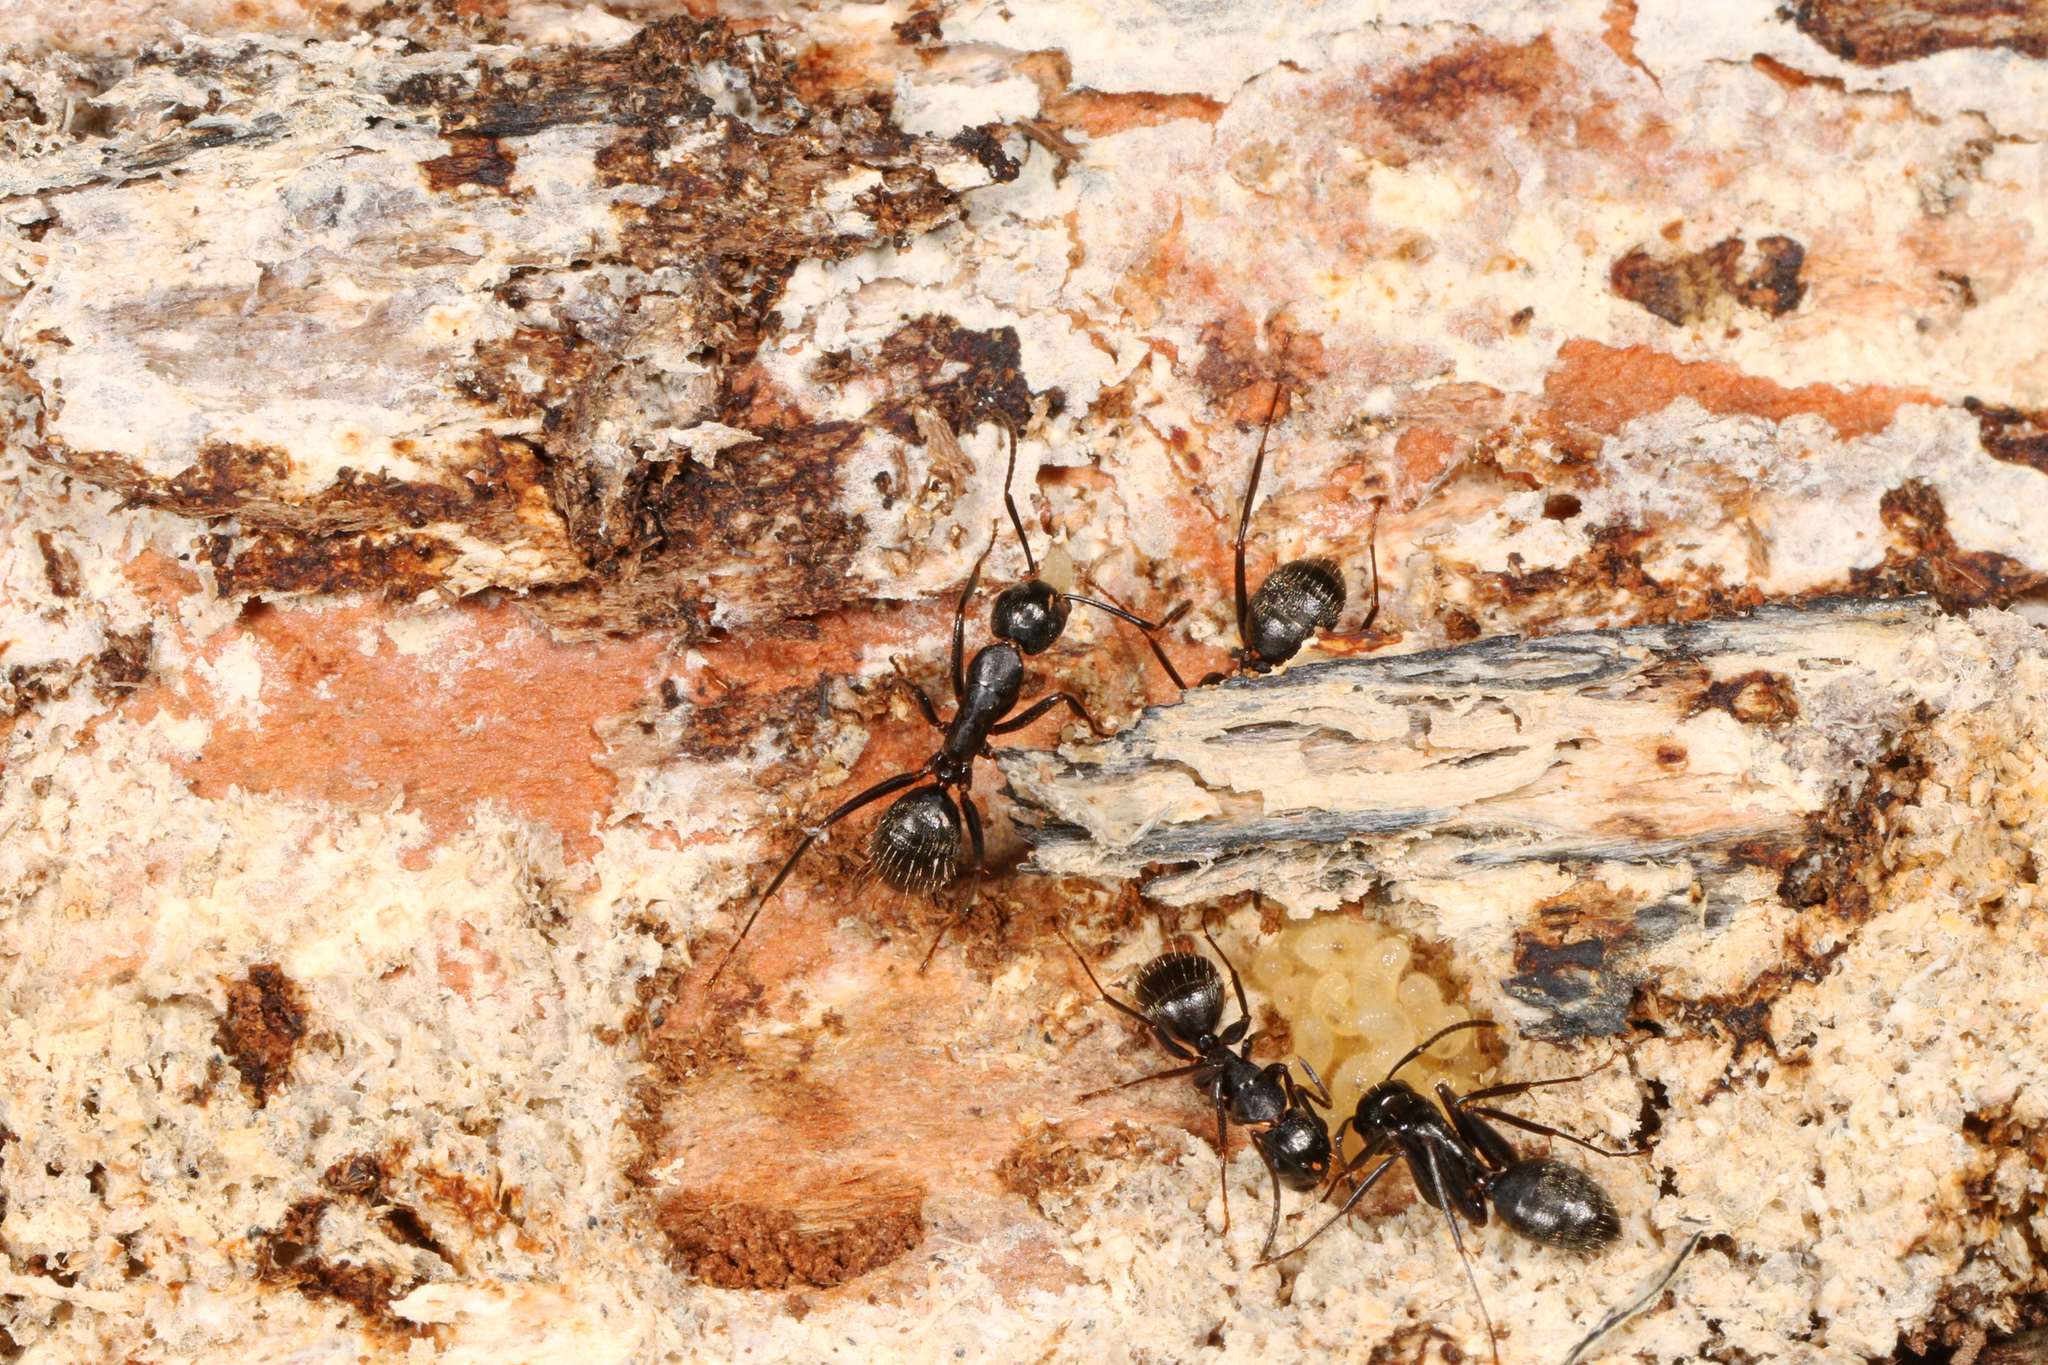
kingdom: Animalia
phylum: Arthropoda
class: Insecta
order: Hymenoptera
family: Formicidae
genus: Camponotus
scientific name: Camponotus pennsylvanicus
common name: Black carpenter ant
